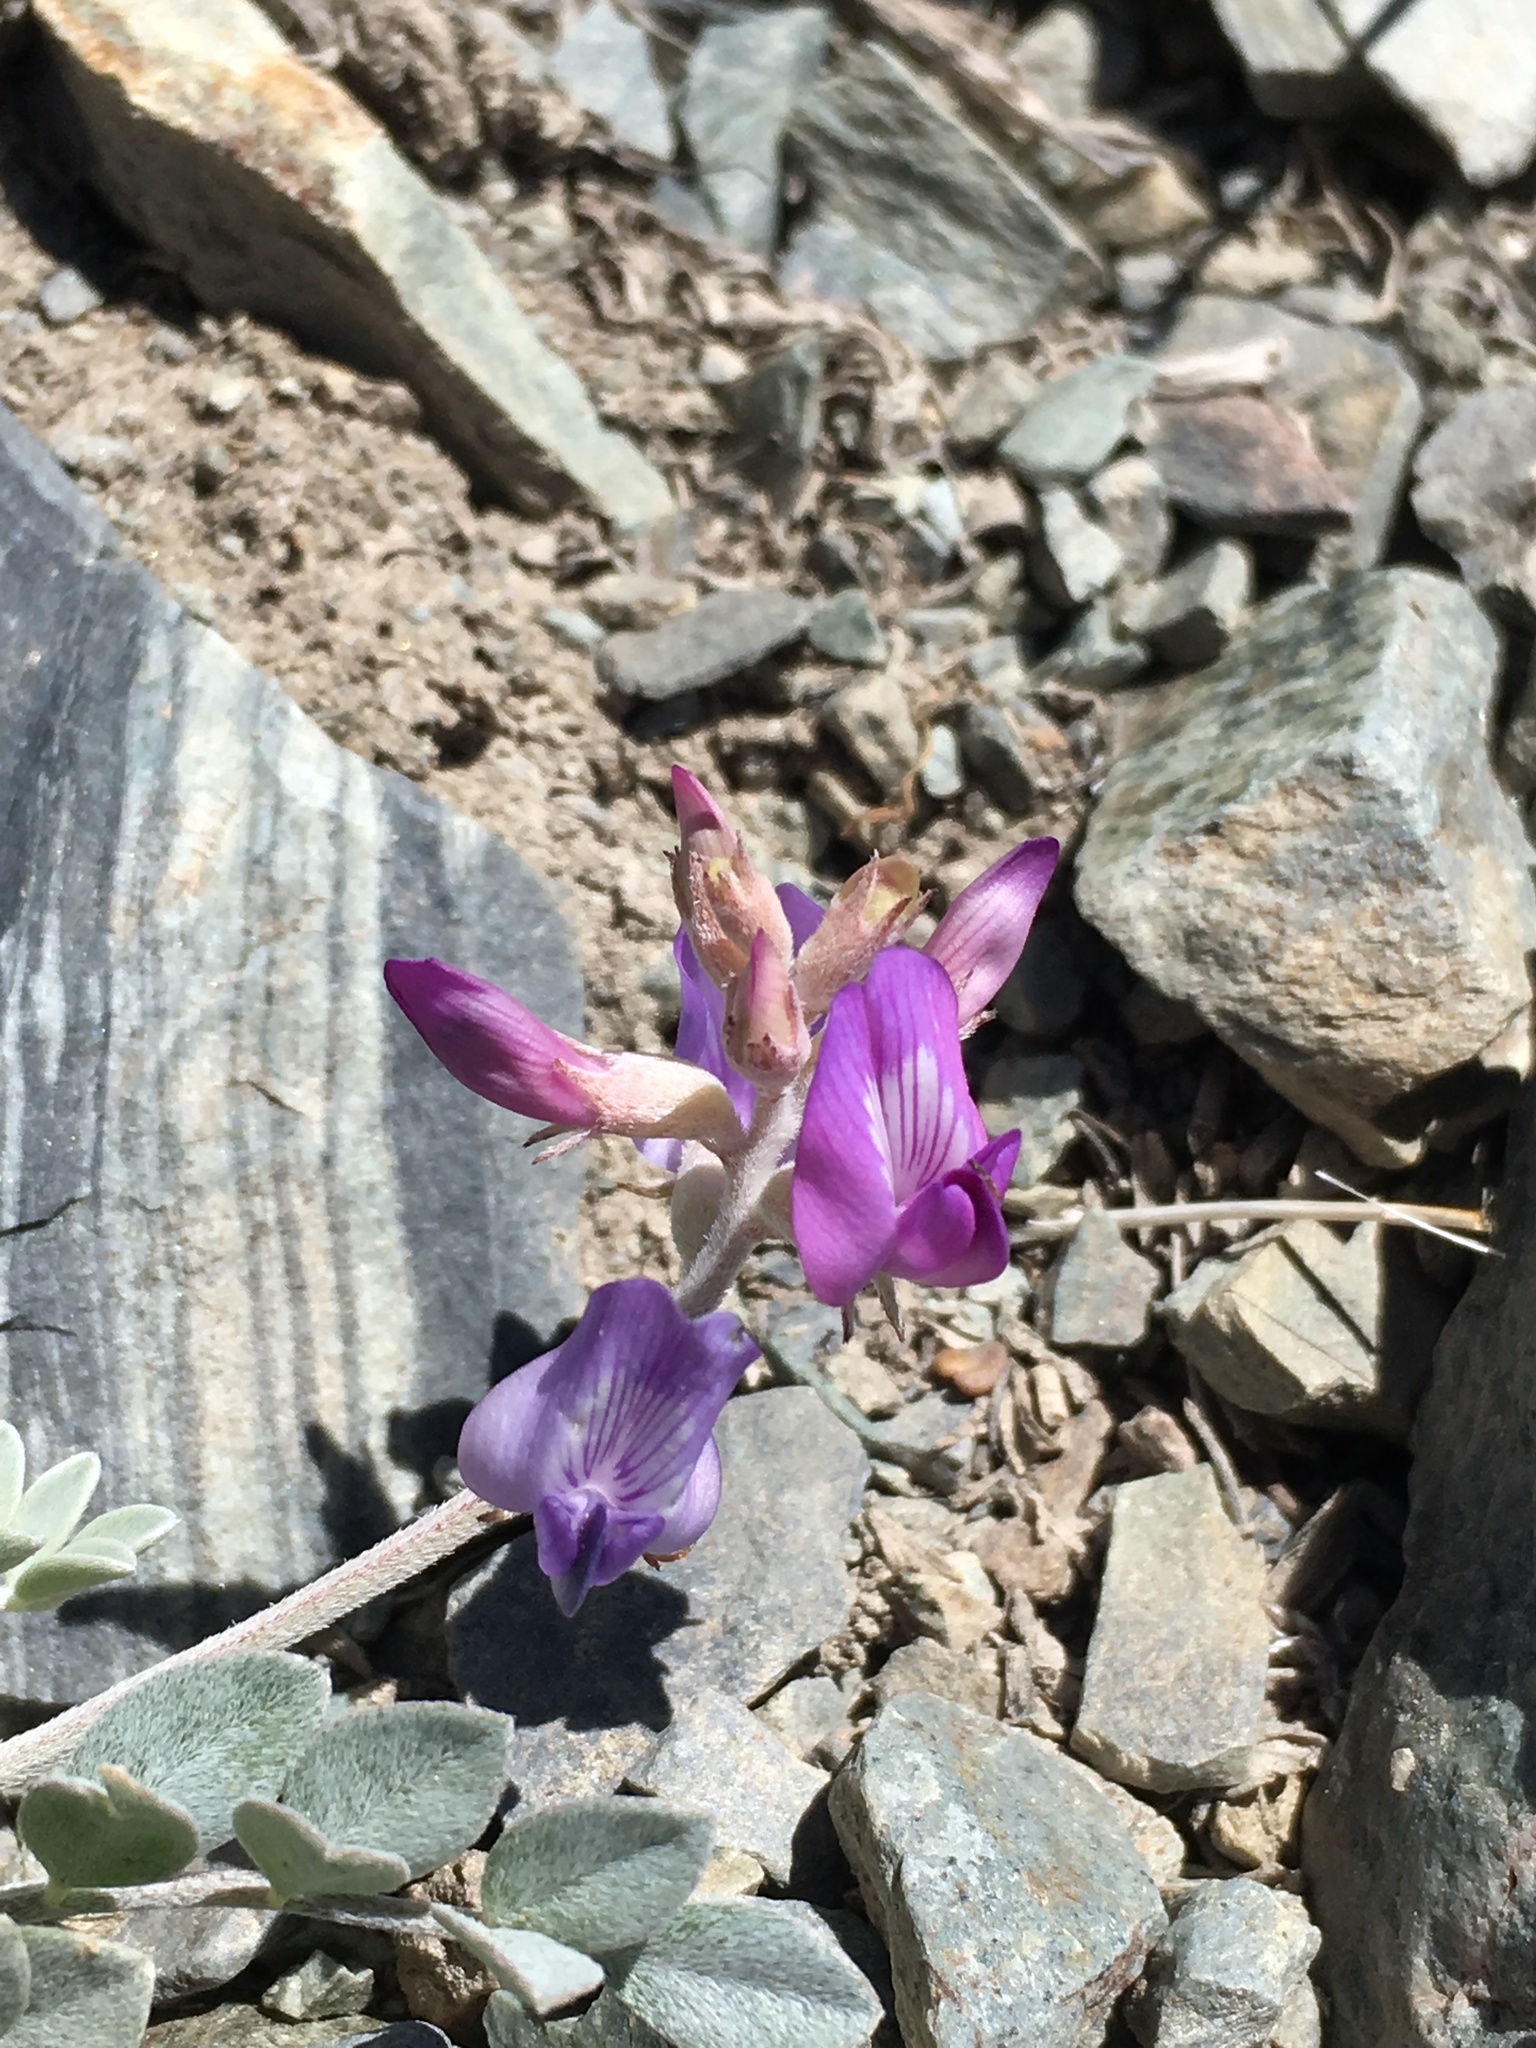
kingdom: Plantae
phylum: Tracheophyta
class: Magnoliopsida
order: Fabales
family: Fabaceae
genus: Astragalus
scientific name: Astragalus mohavensis
